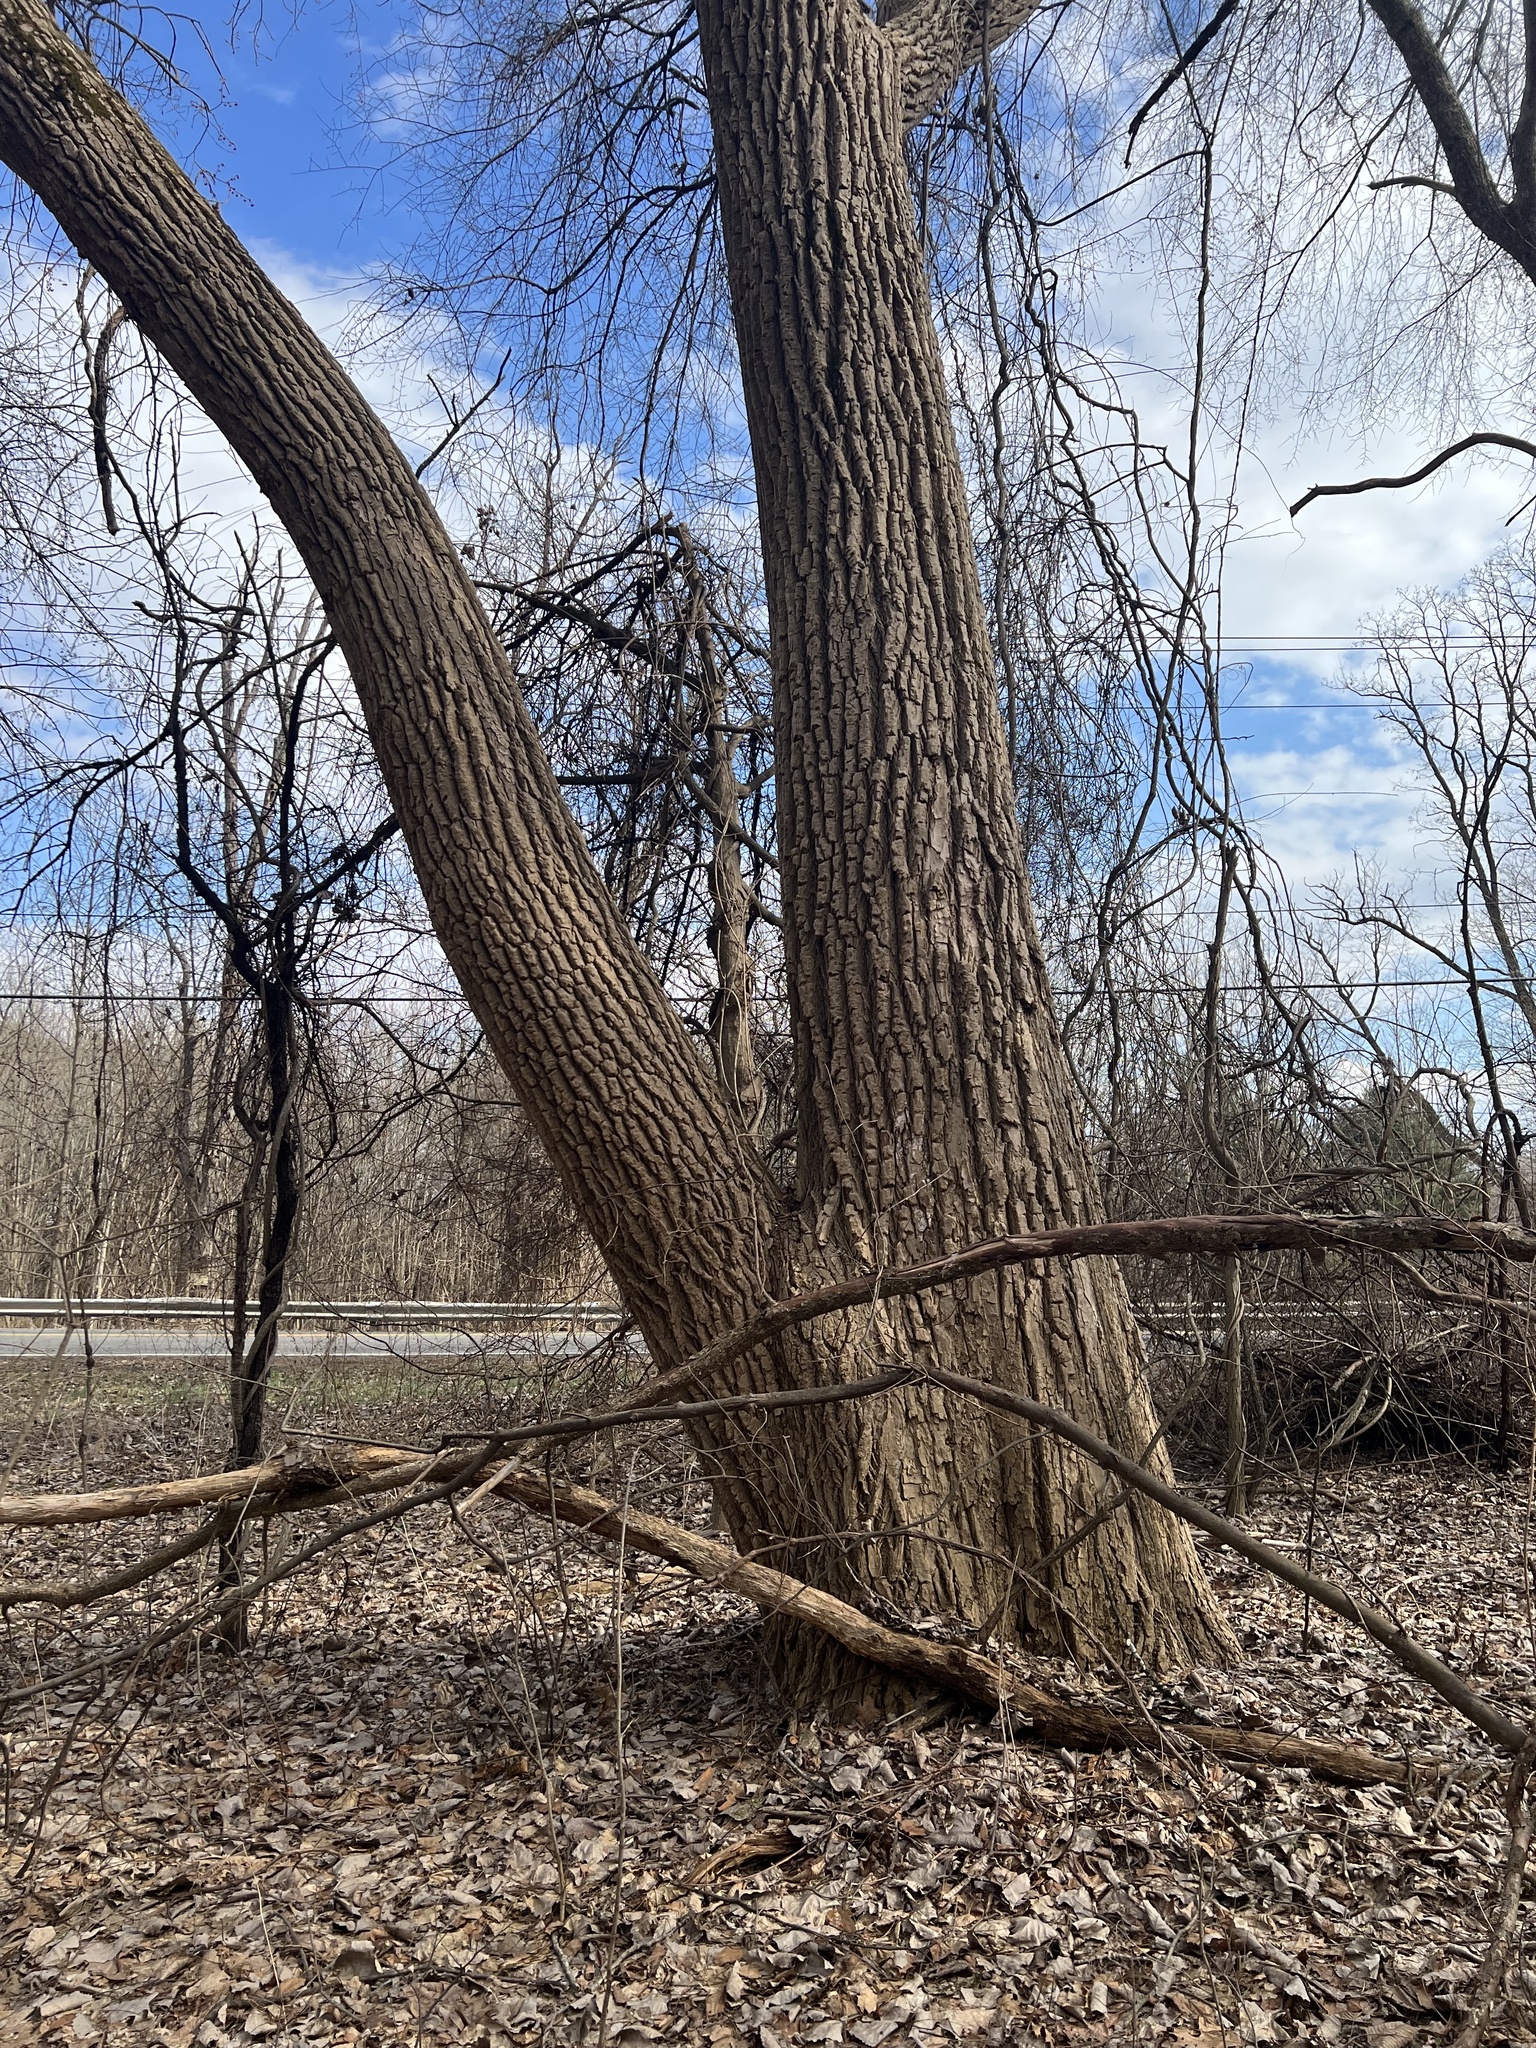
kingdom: Plantae
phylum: Tracheophyta
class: Magnoliopsida
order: Malpighiales
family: Salicaceae
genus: Populus
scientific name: Populus deltoides
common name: Eastern cottonwood
